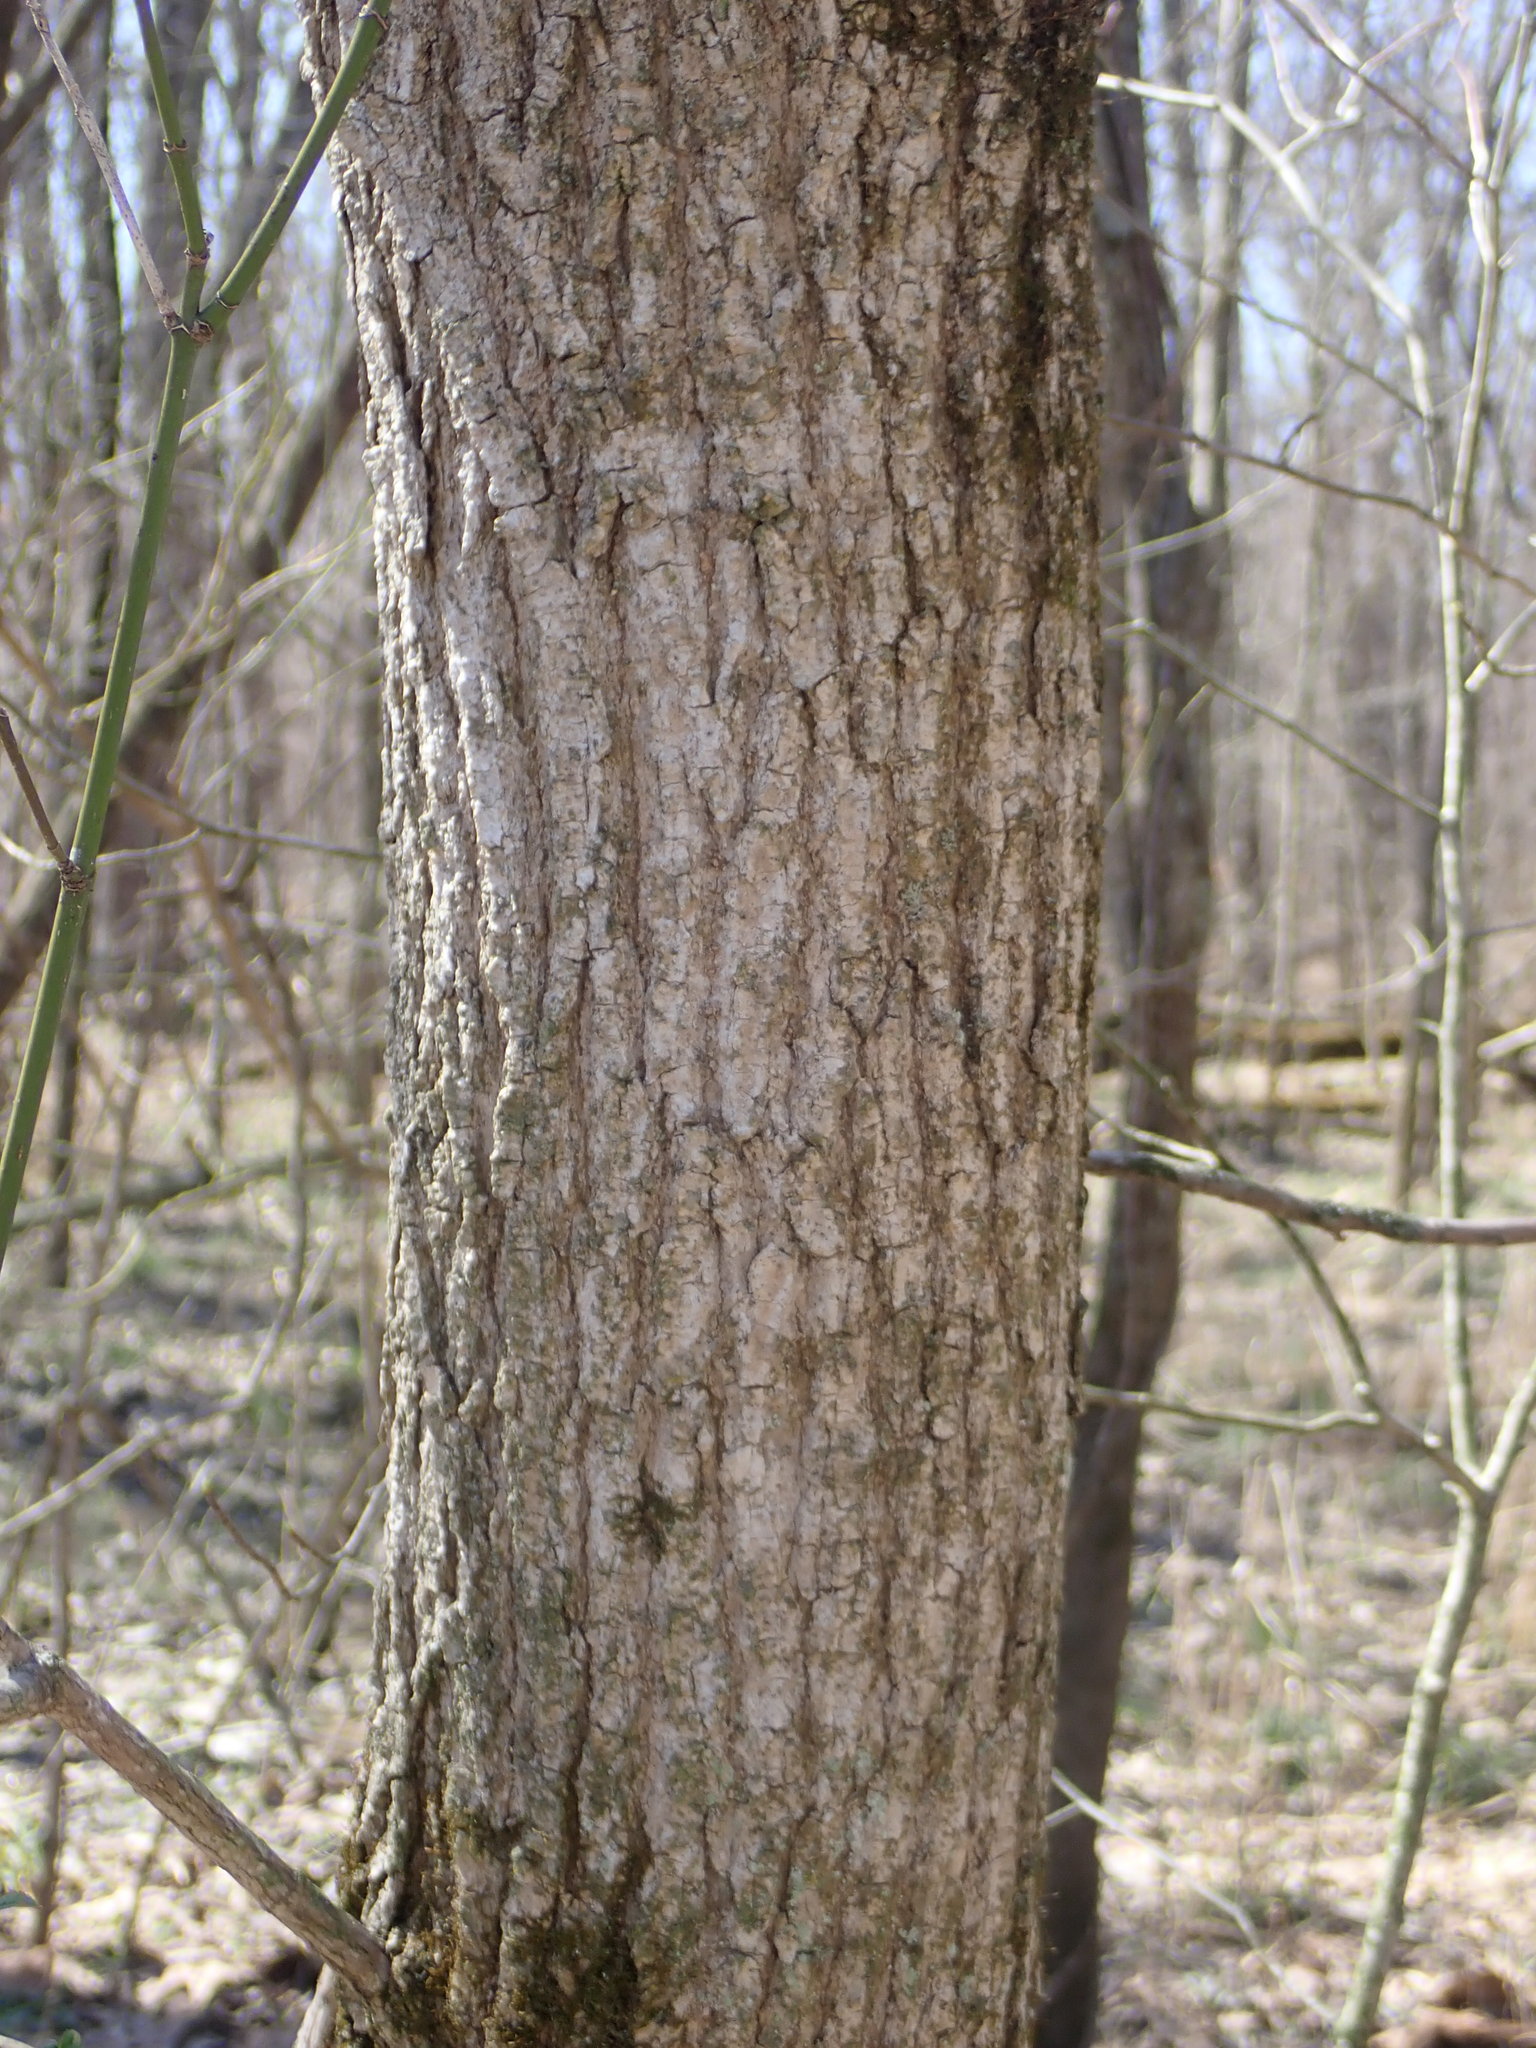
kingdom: Plantae
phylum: Tracheophyta
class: Magnoliopsida
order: Sapindales
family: Sapindaceae
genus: Acer
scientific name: Acer negundo
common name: Ashleaf maple
